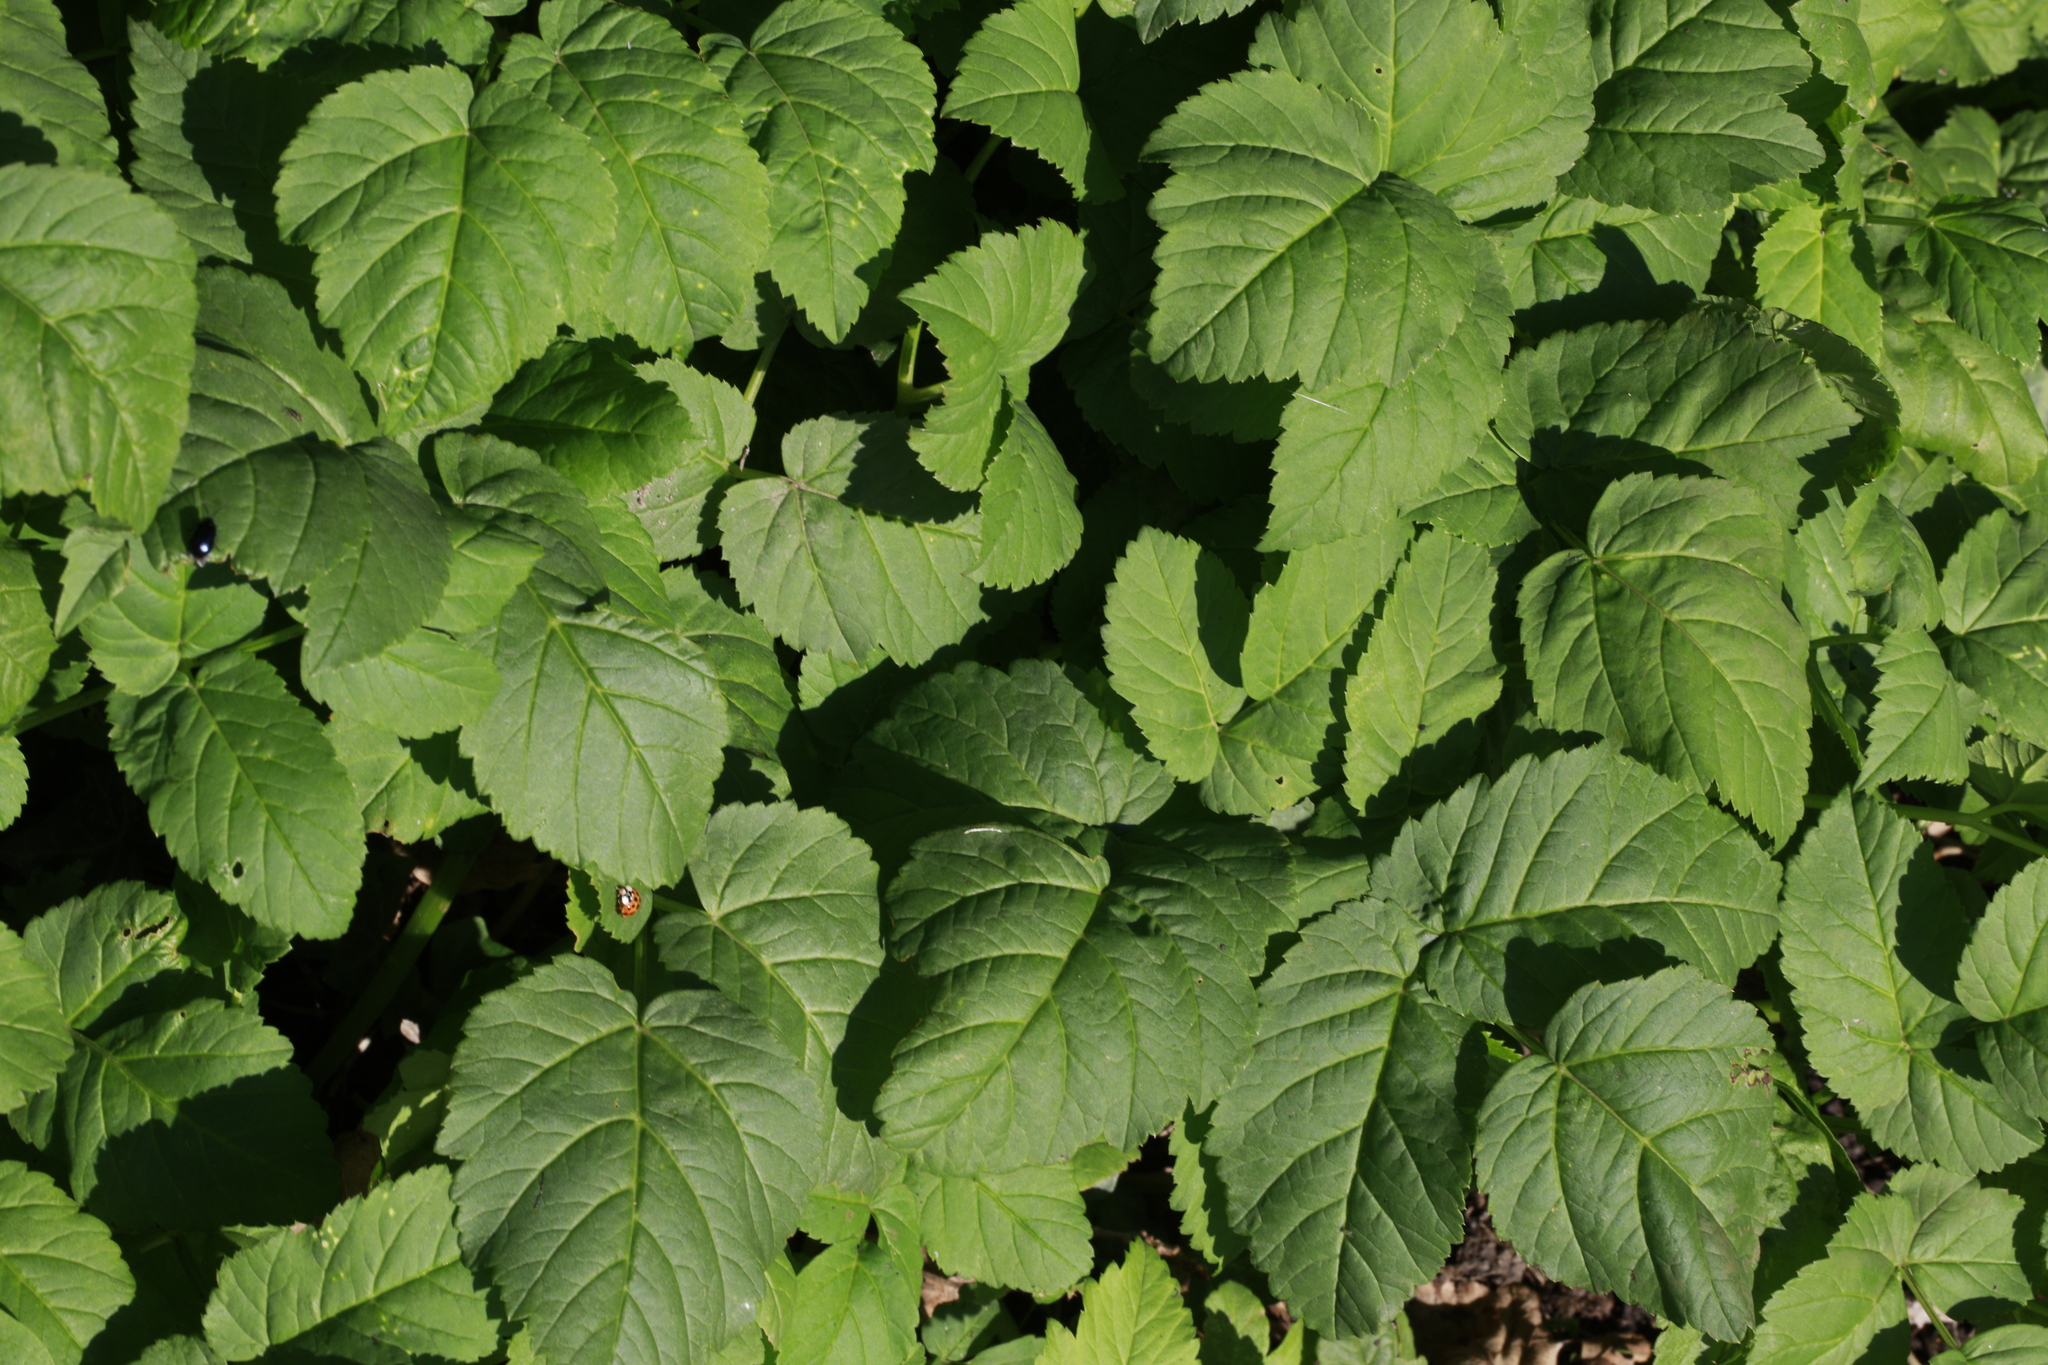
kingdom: Plantae
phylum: Tracheophyta
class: Magnoliopsida
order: Apiales
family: Apiaceae
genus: Aegopodium
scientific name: Aegopodium podagraria
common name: Ground-elder
